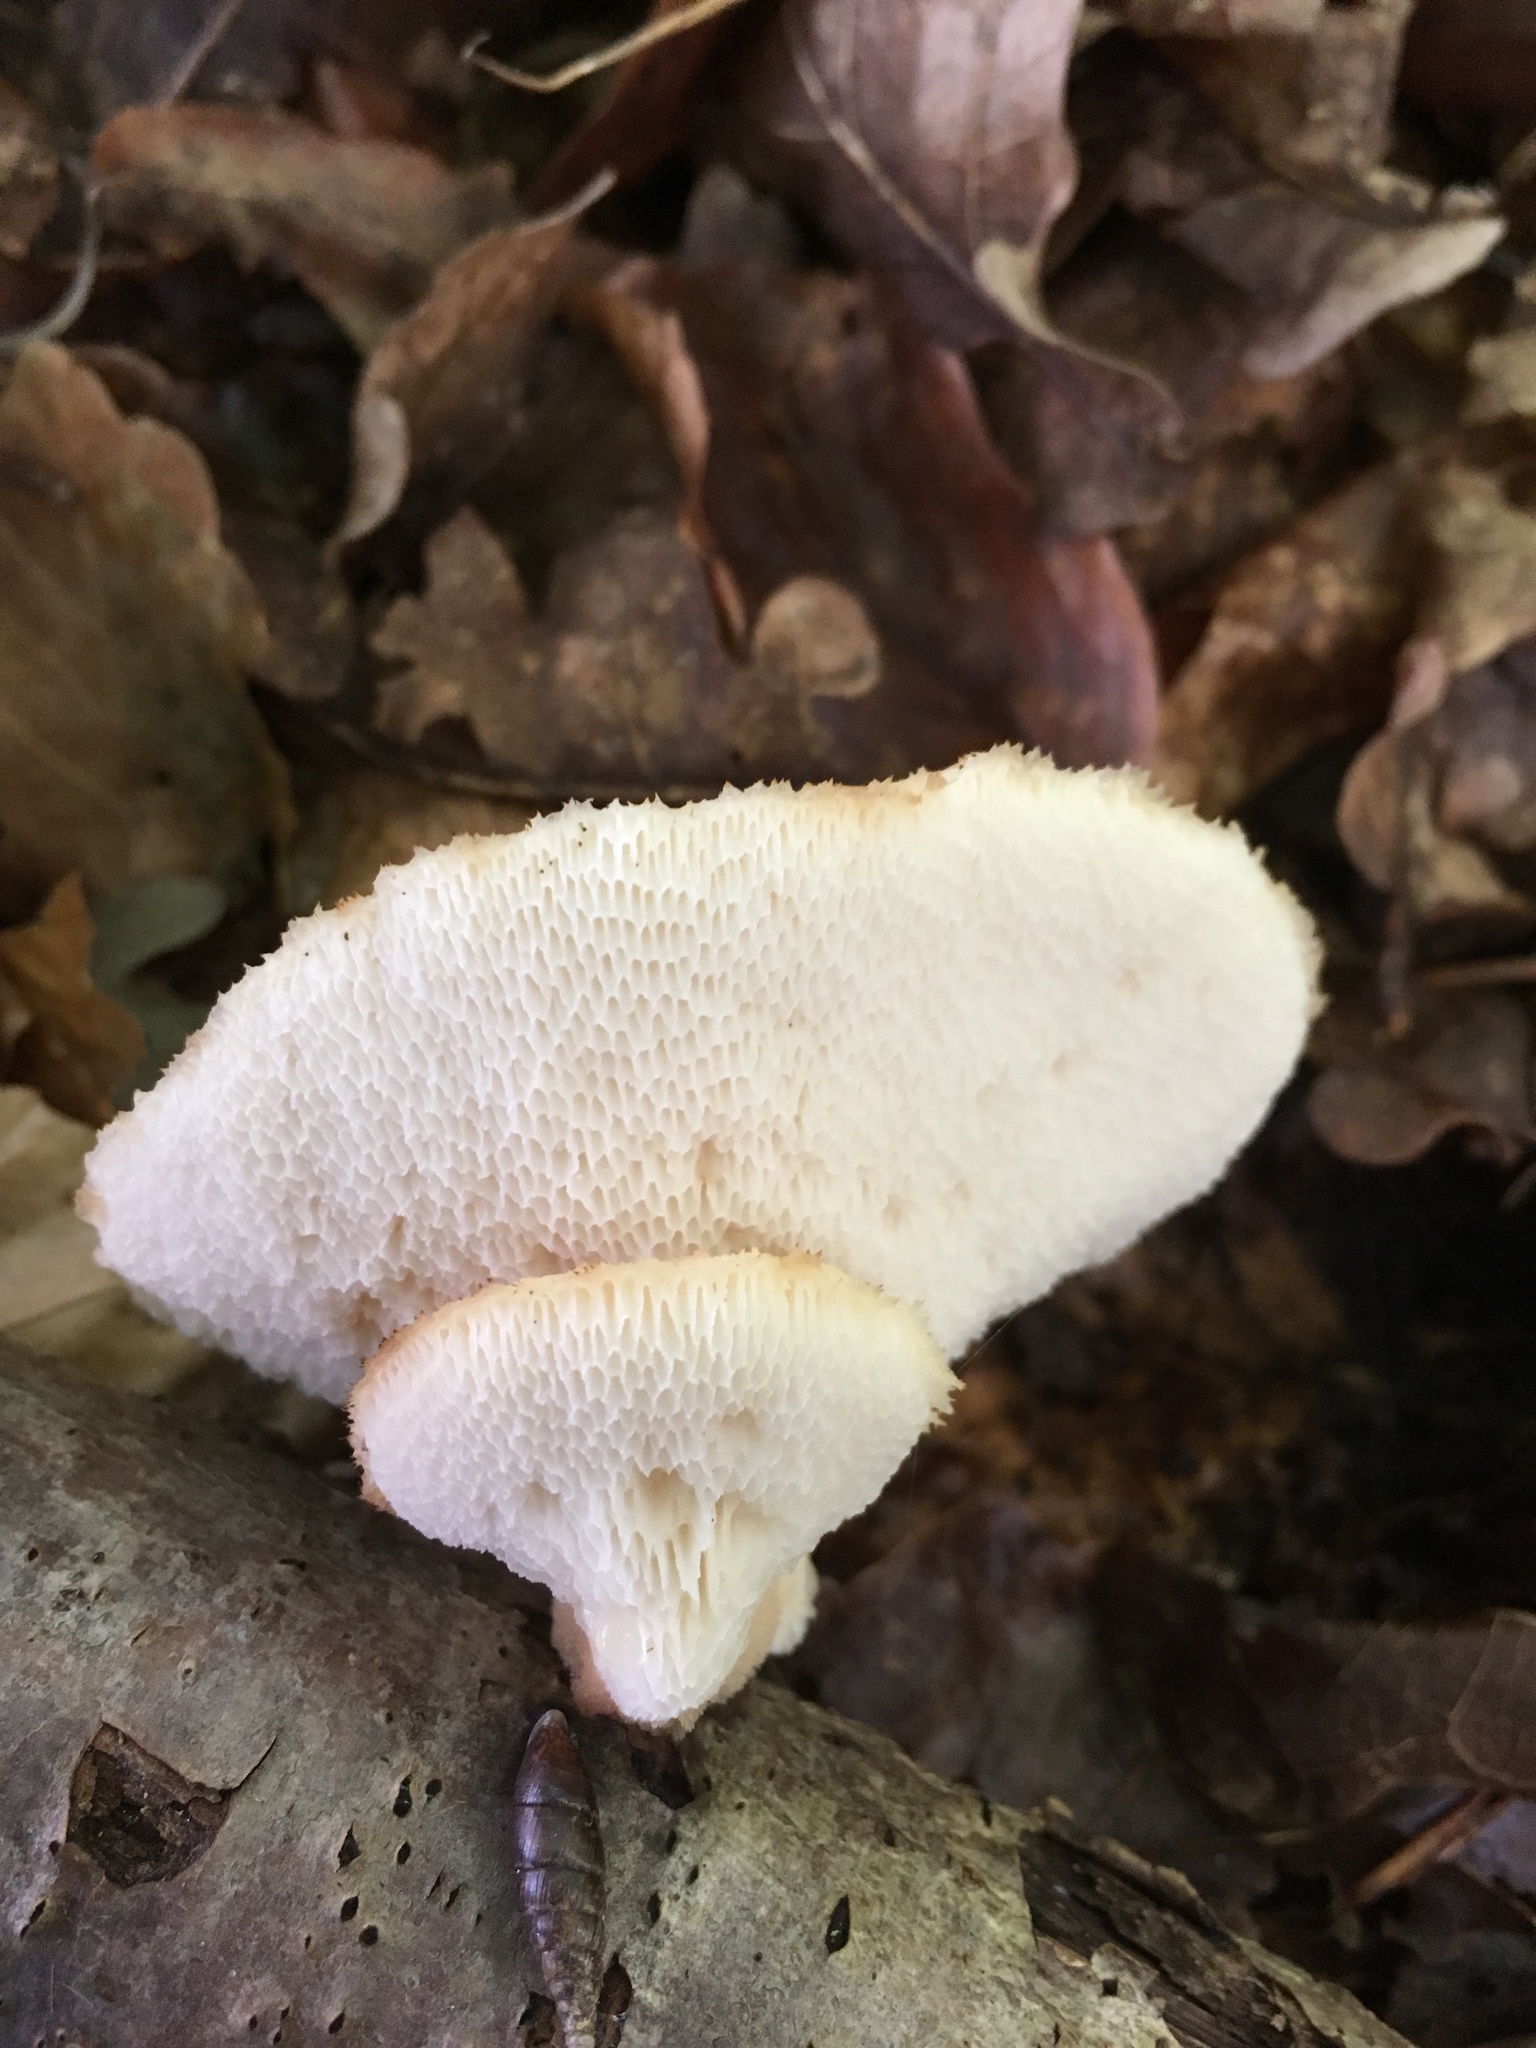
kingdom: Fungi
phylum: Basidiomycota
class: Agaricomycetes
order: Polyporales
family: Polyporaceae
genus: Polyporus
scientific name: Polyporus tuberaster
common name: Tuberous polypore
